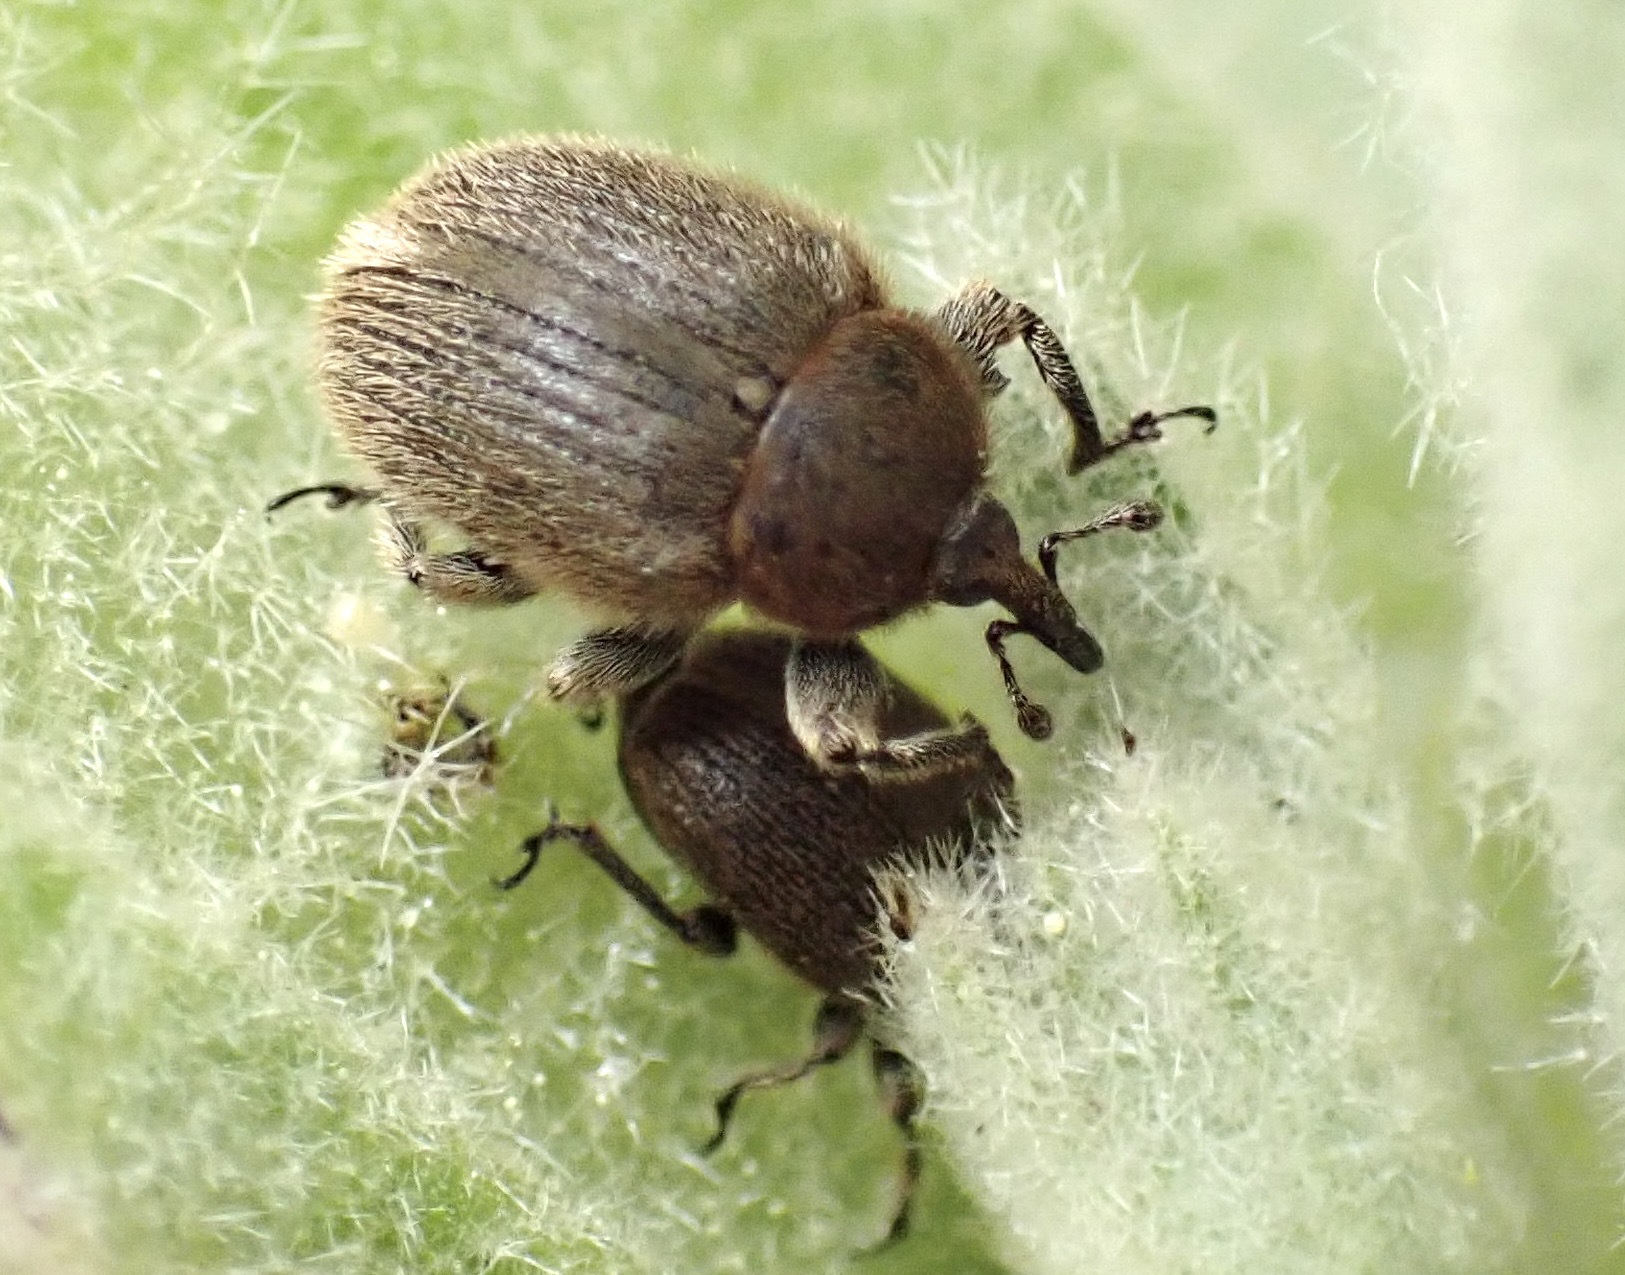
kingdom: Animalia
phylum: Arthropoda
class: Insecta
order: Coleoptera
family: Curculionidae
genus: Rhinusa
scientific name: Rhinusa tetra
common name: Weevil
